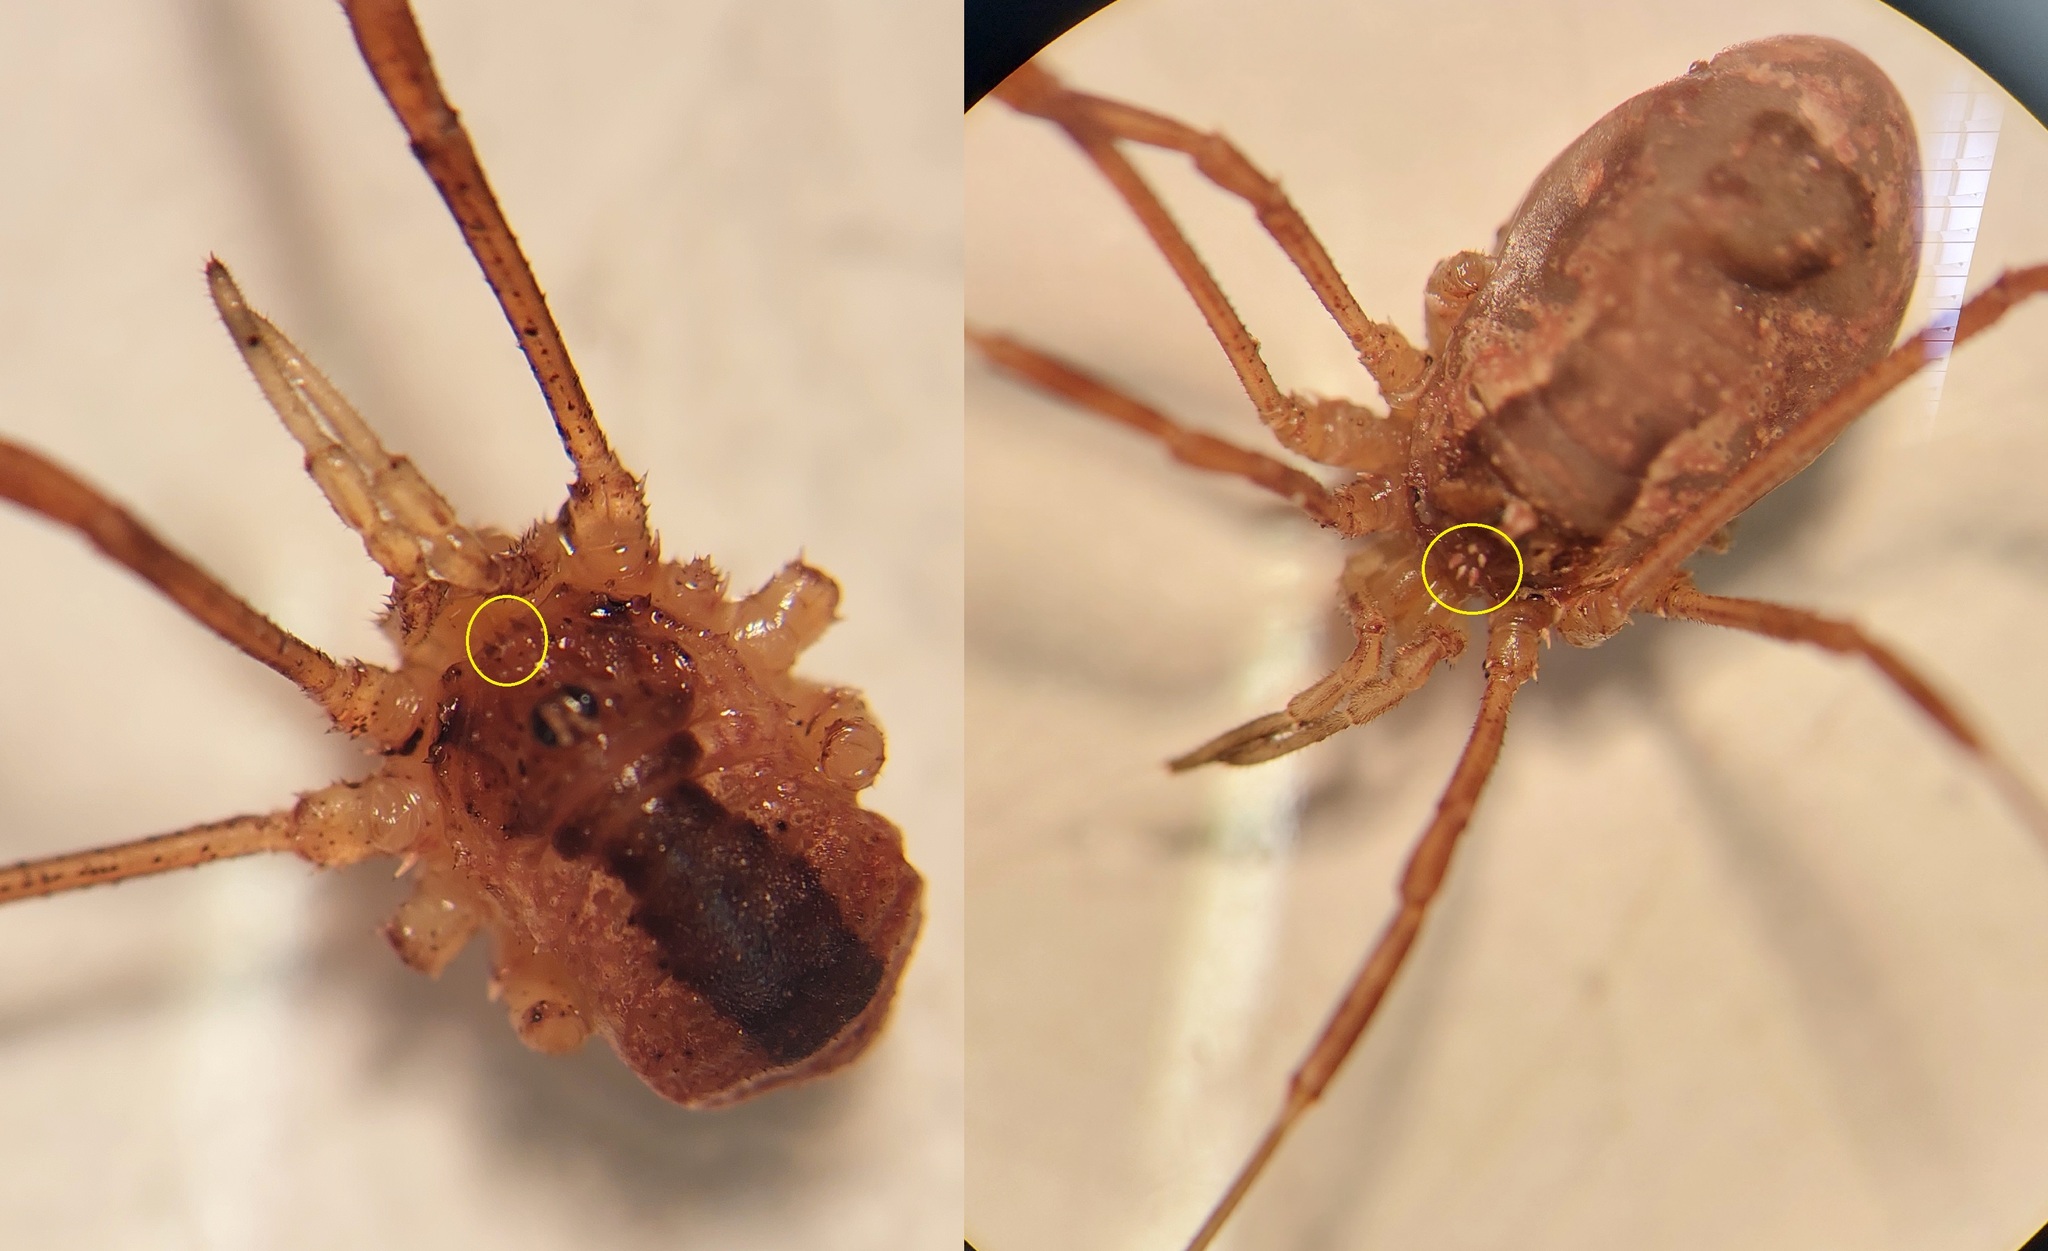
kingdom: Animalia
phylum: Arthropoda
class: Arachnida
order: Opiliones
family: Phalangiidae
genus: Lacinius
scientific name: Lacinius ephippiatus
